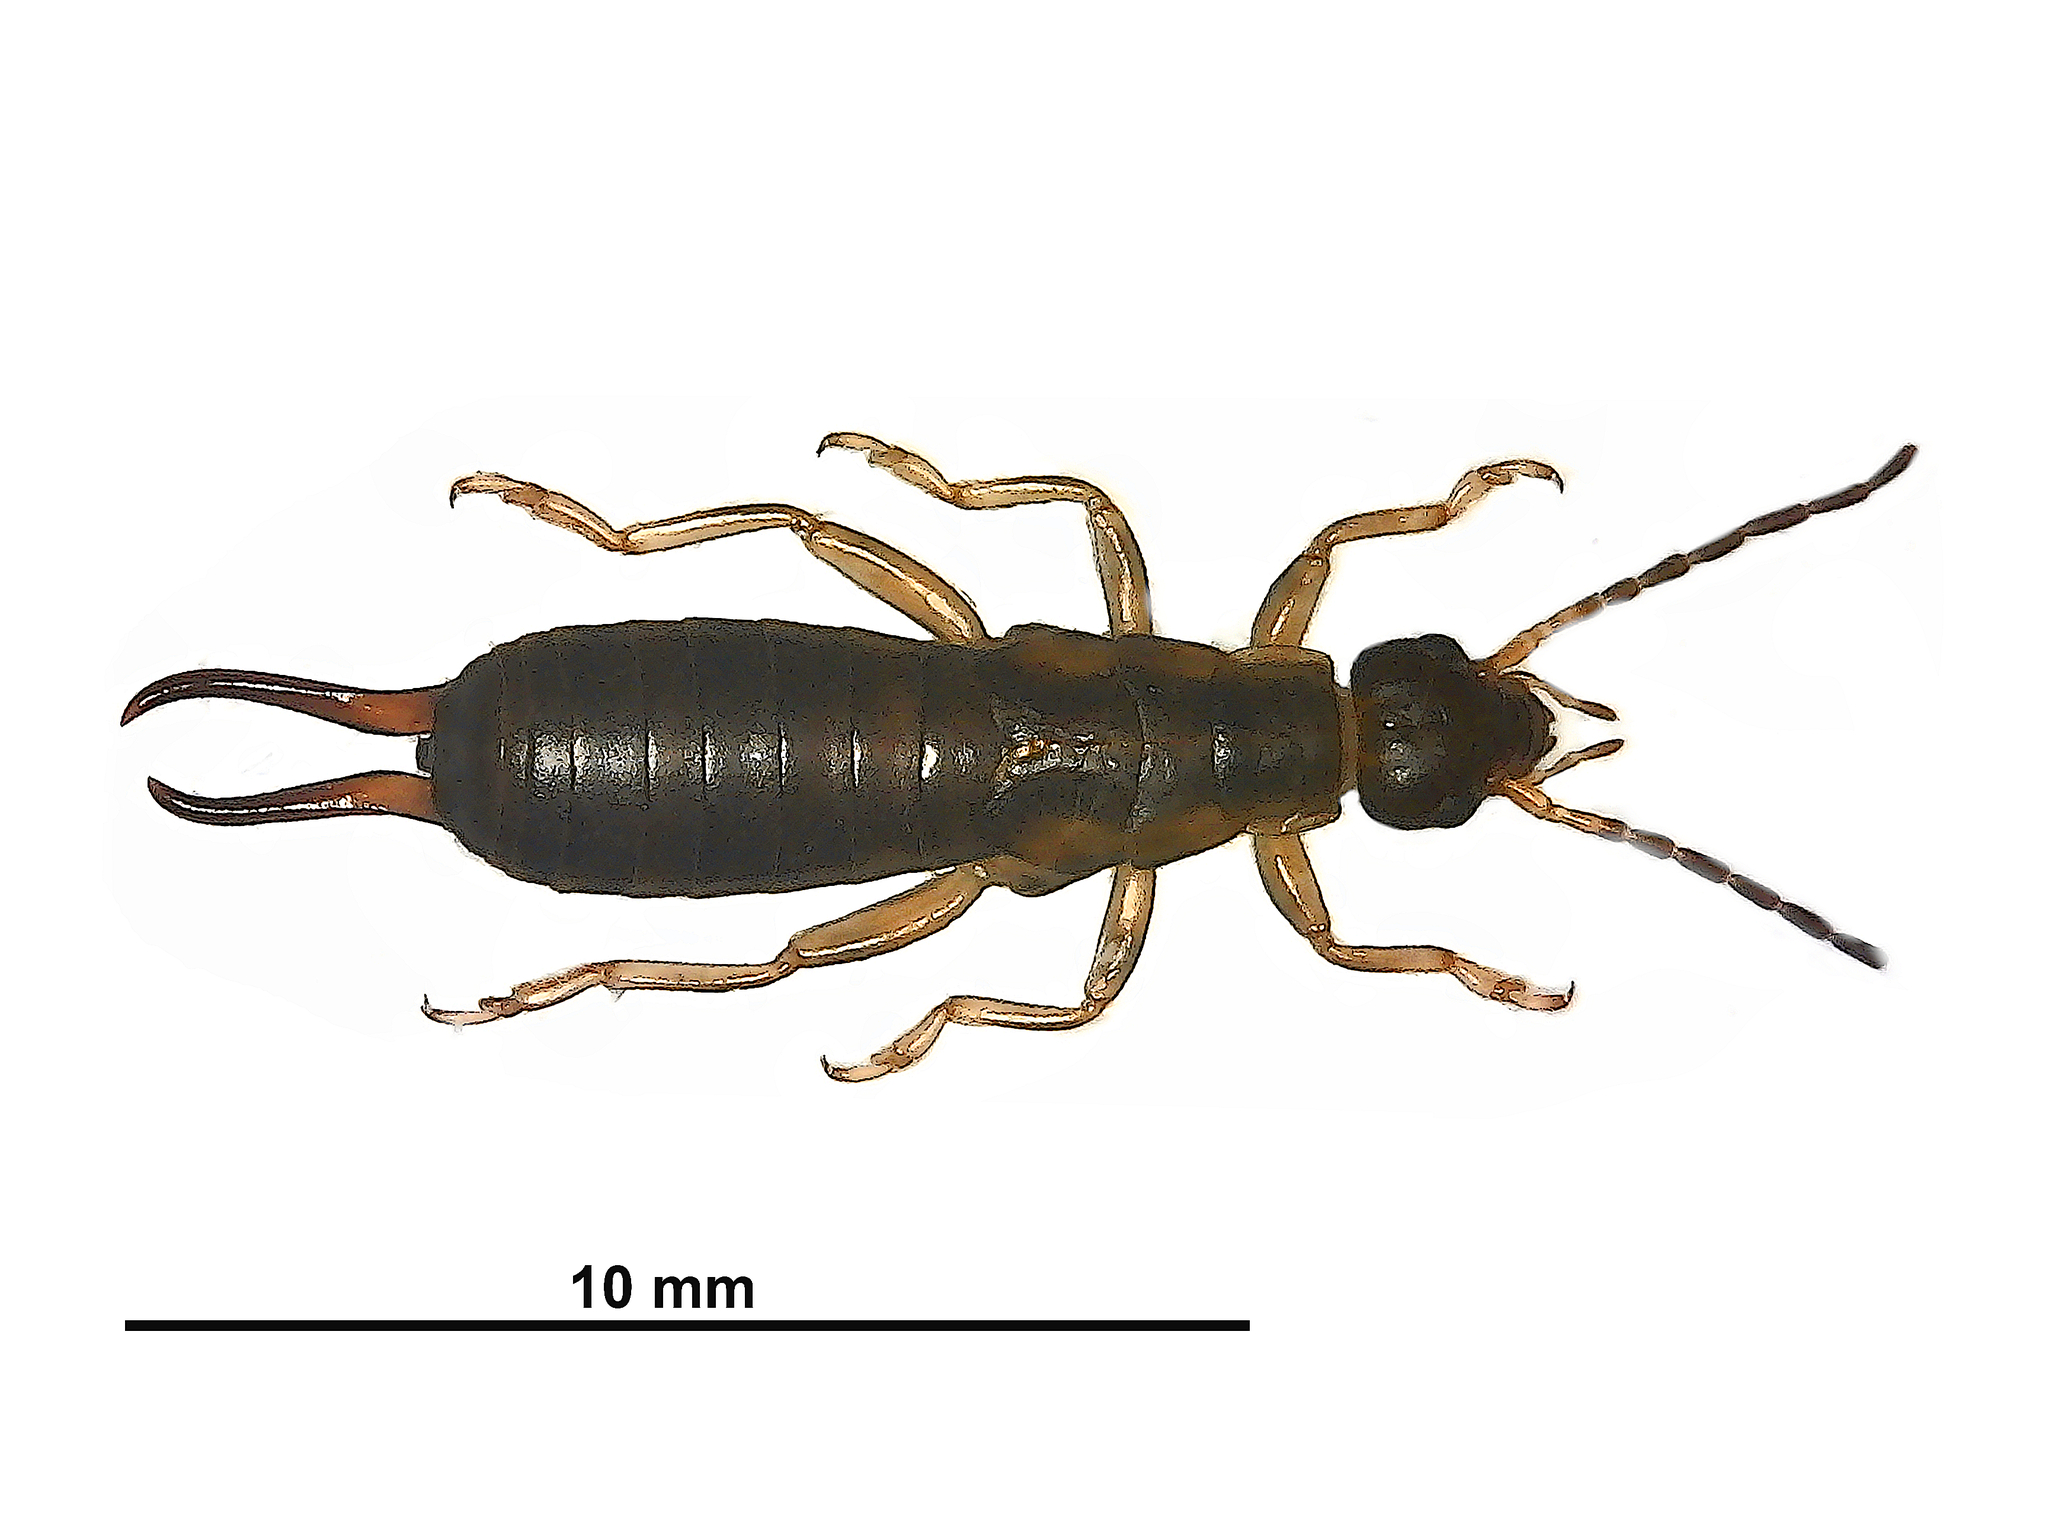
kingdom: Animalia
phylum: Arthropoda
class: Insecta
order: Dermaptera
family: Forficulidae
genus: Forficula
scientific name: Forficula
